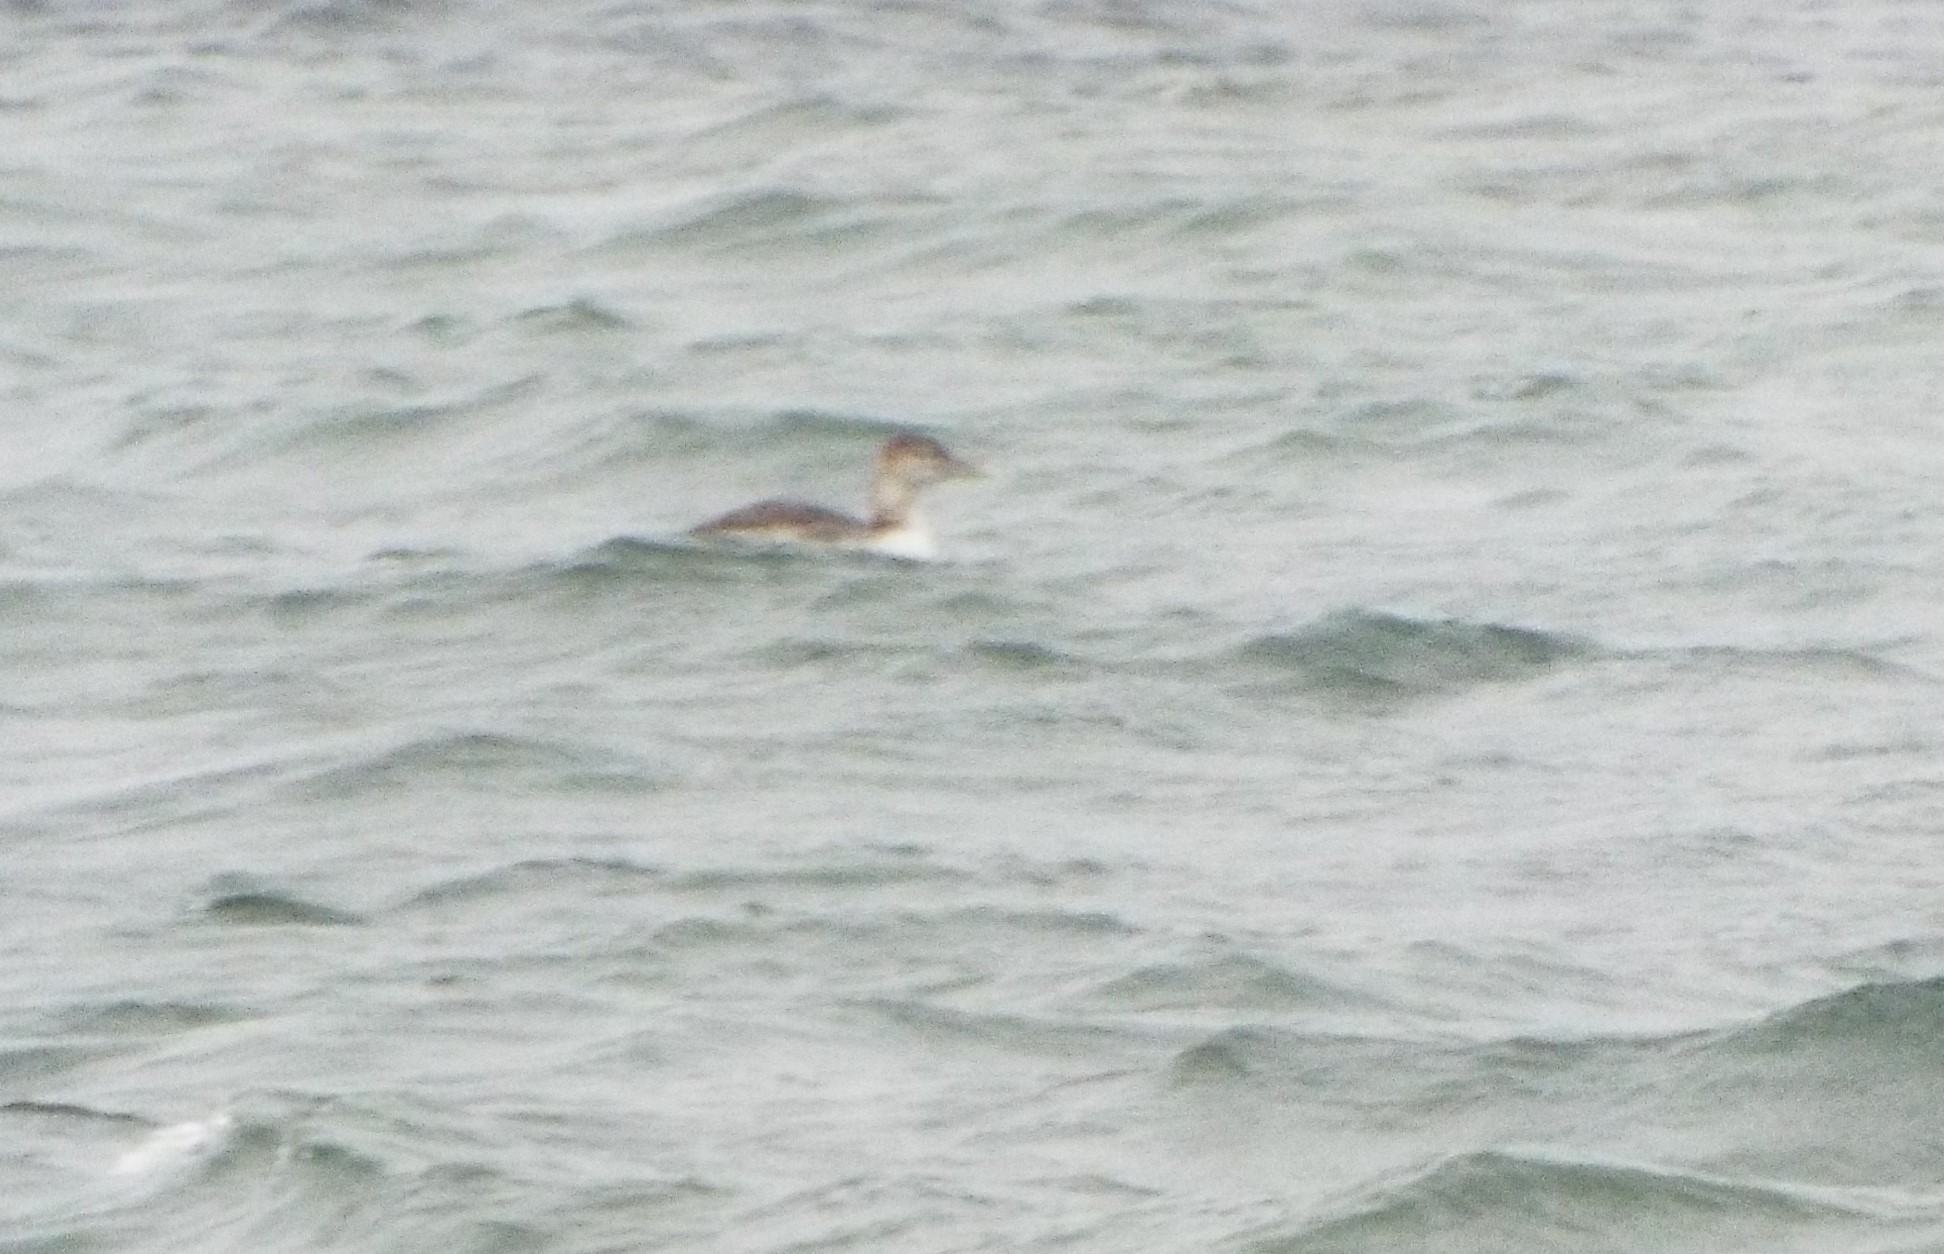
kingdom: Animalia
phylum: Chordata
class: Aves
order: Gaviiformes
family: Gaviidae
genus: Gavia
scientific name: Gavia adamsii
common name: Yellow-billed loon
